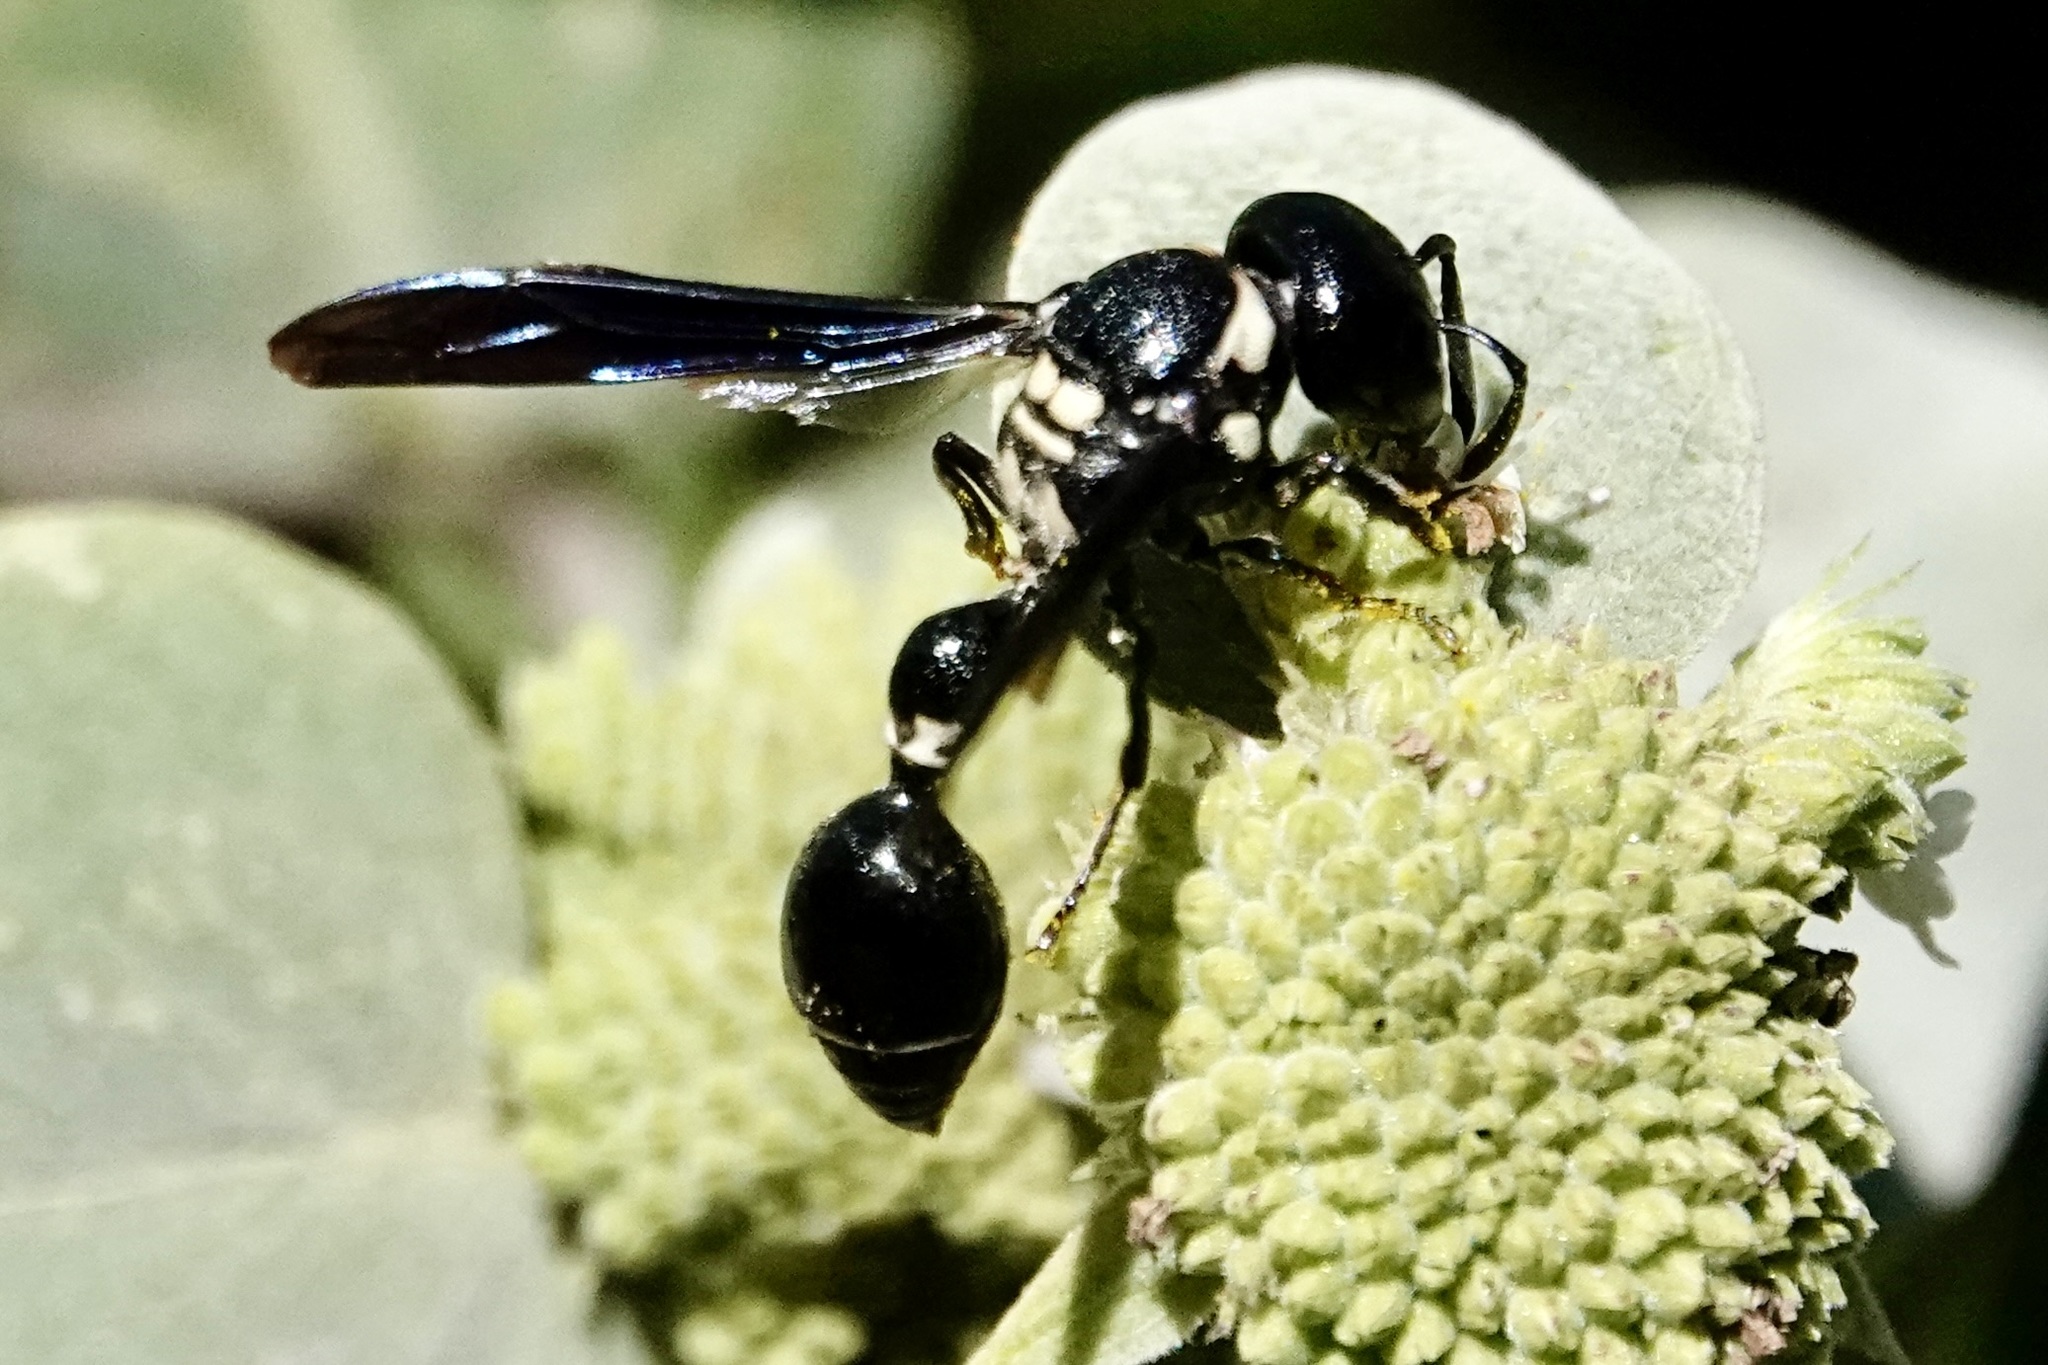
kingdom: Animalia
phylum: Arthropoda
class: Insecta
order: Hymenoptera
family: Eumenidae
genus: Zethus
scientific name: Zethus spinipes
